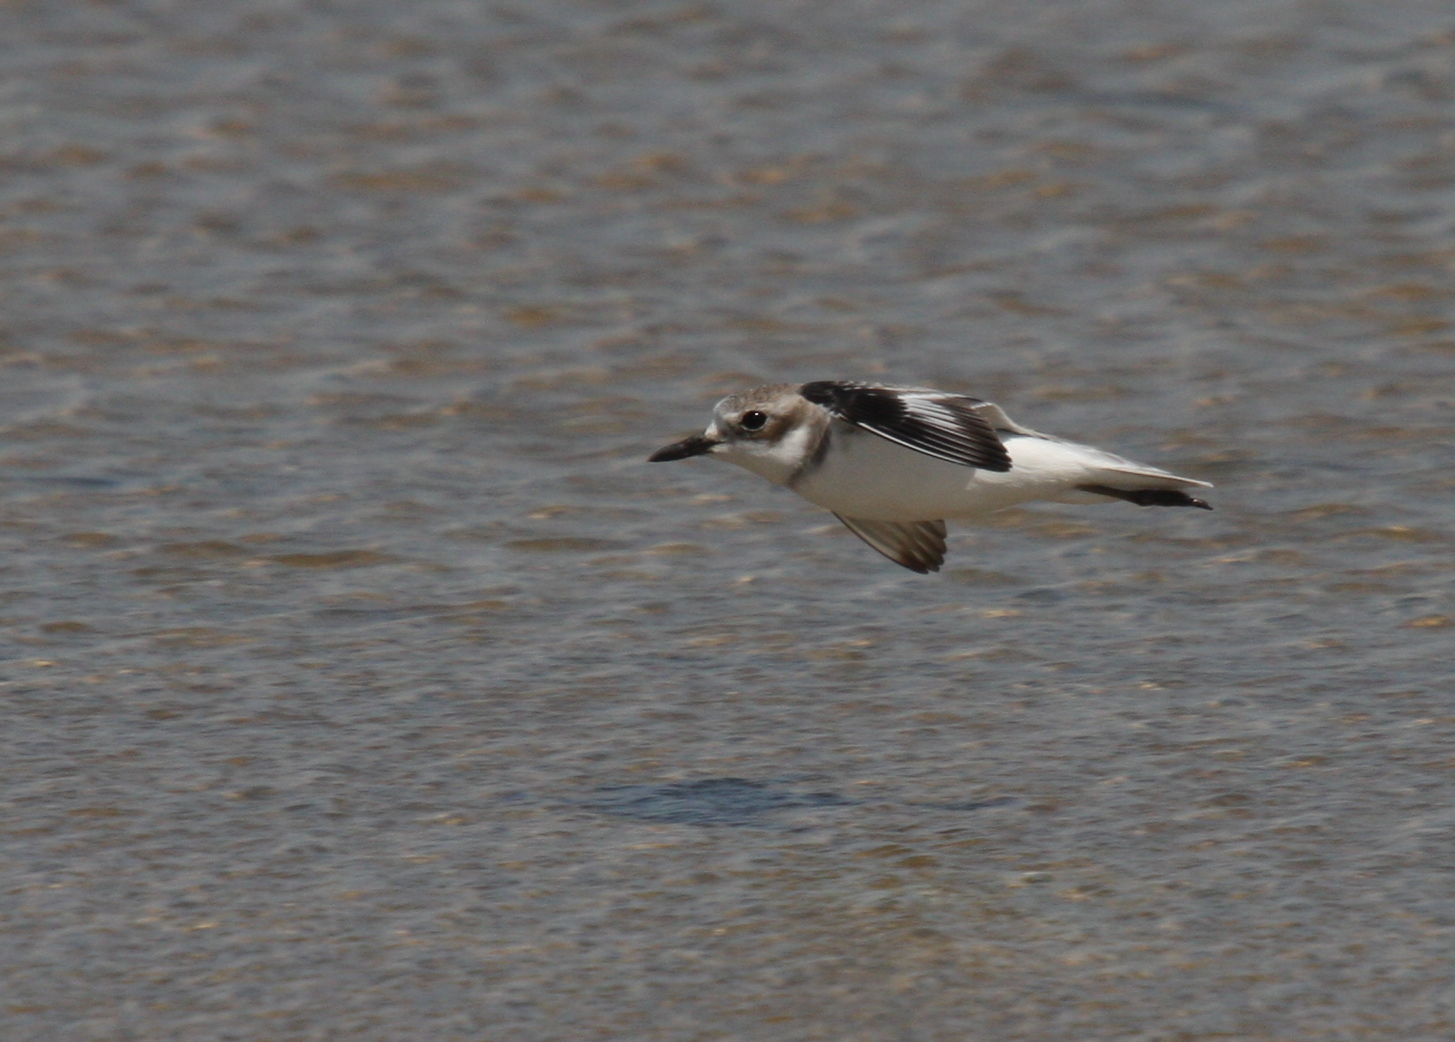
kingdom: Animalia
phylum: Chordata
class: Aves
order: Charadriiformes
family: Charadriidae
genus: Charadrius
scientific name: Charadrius leschenaultii
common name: Greater sand plover
